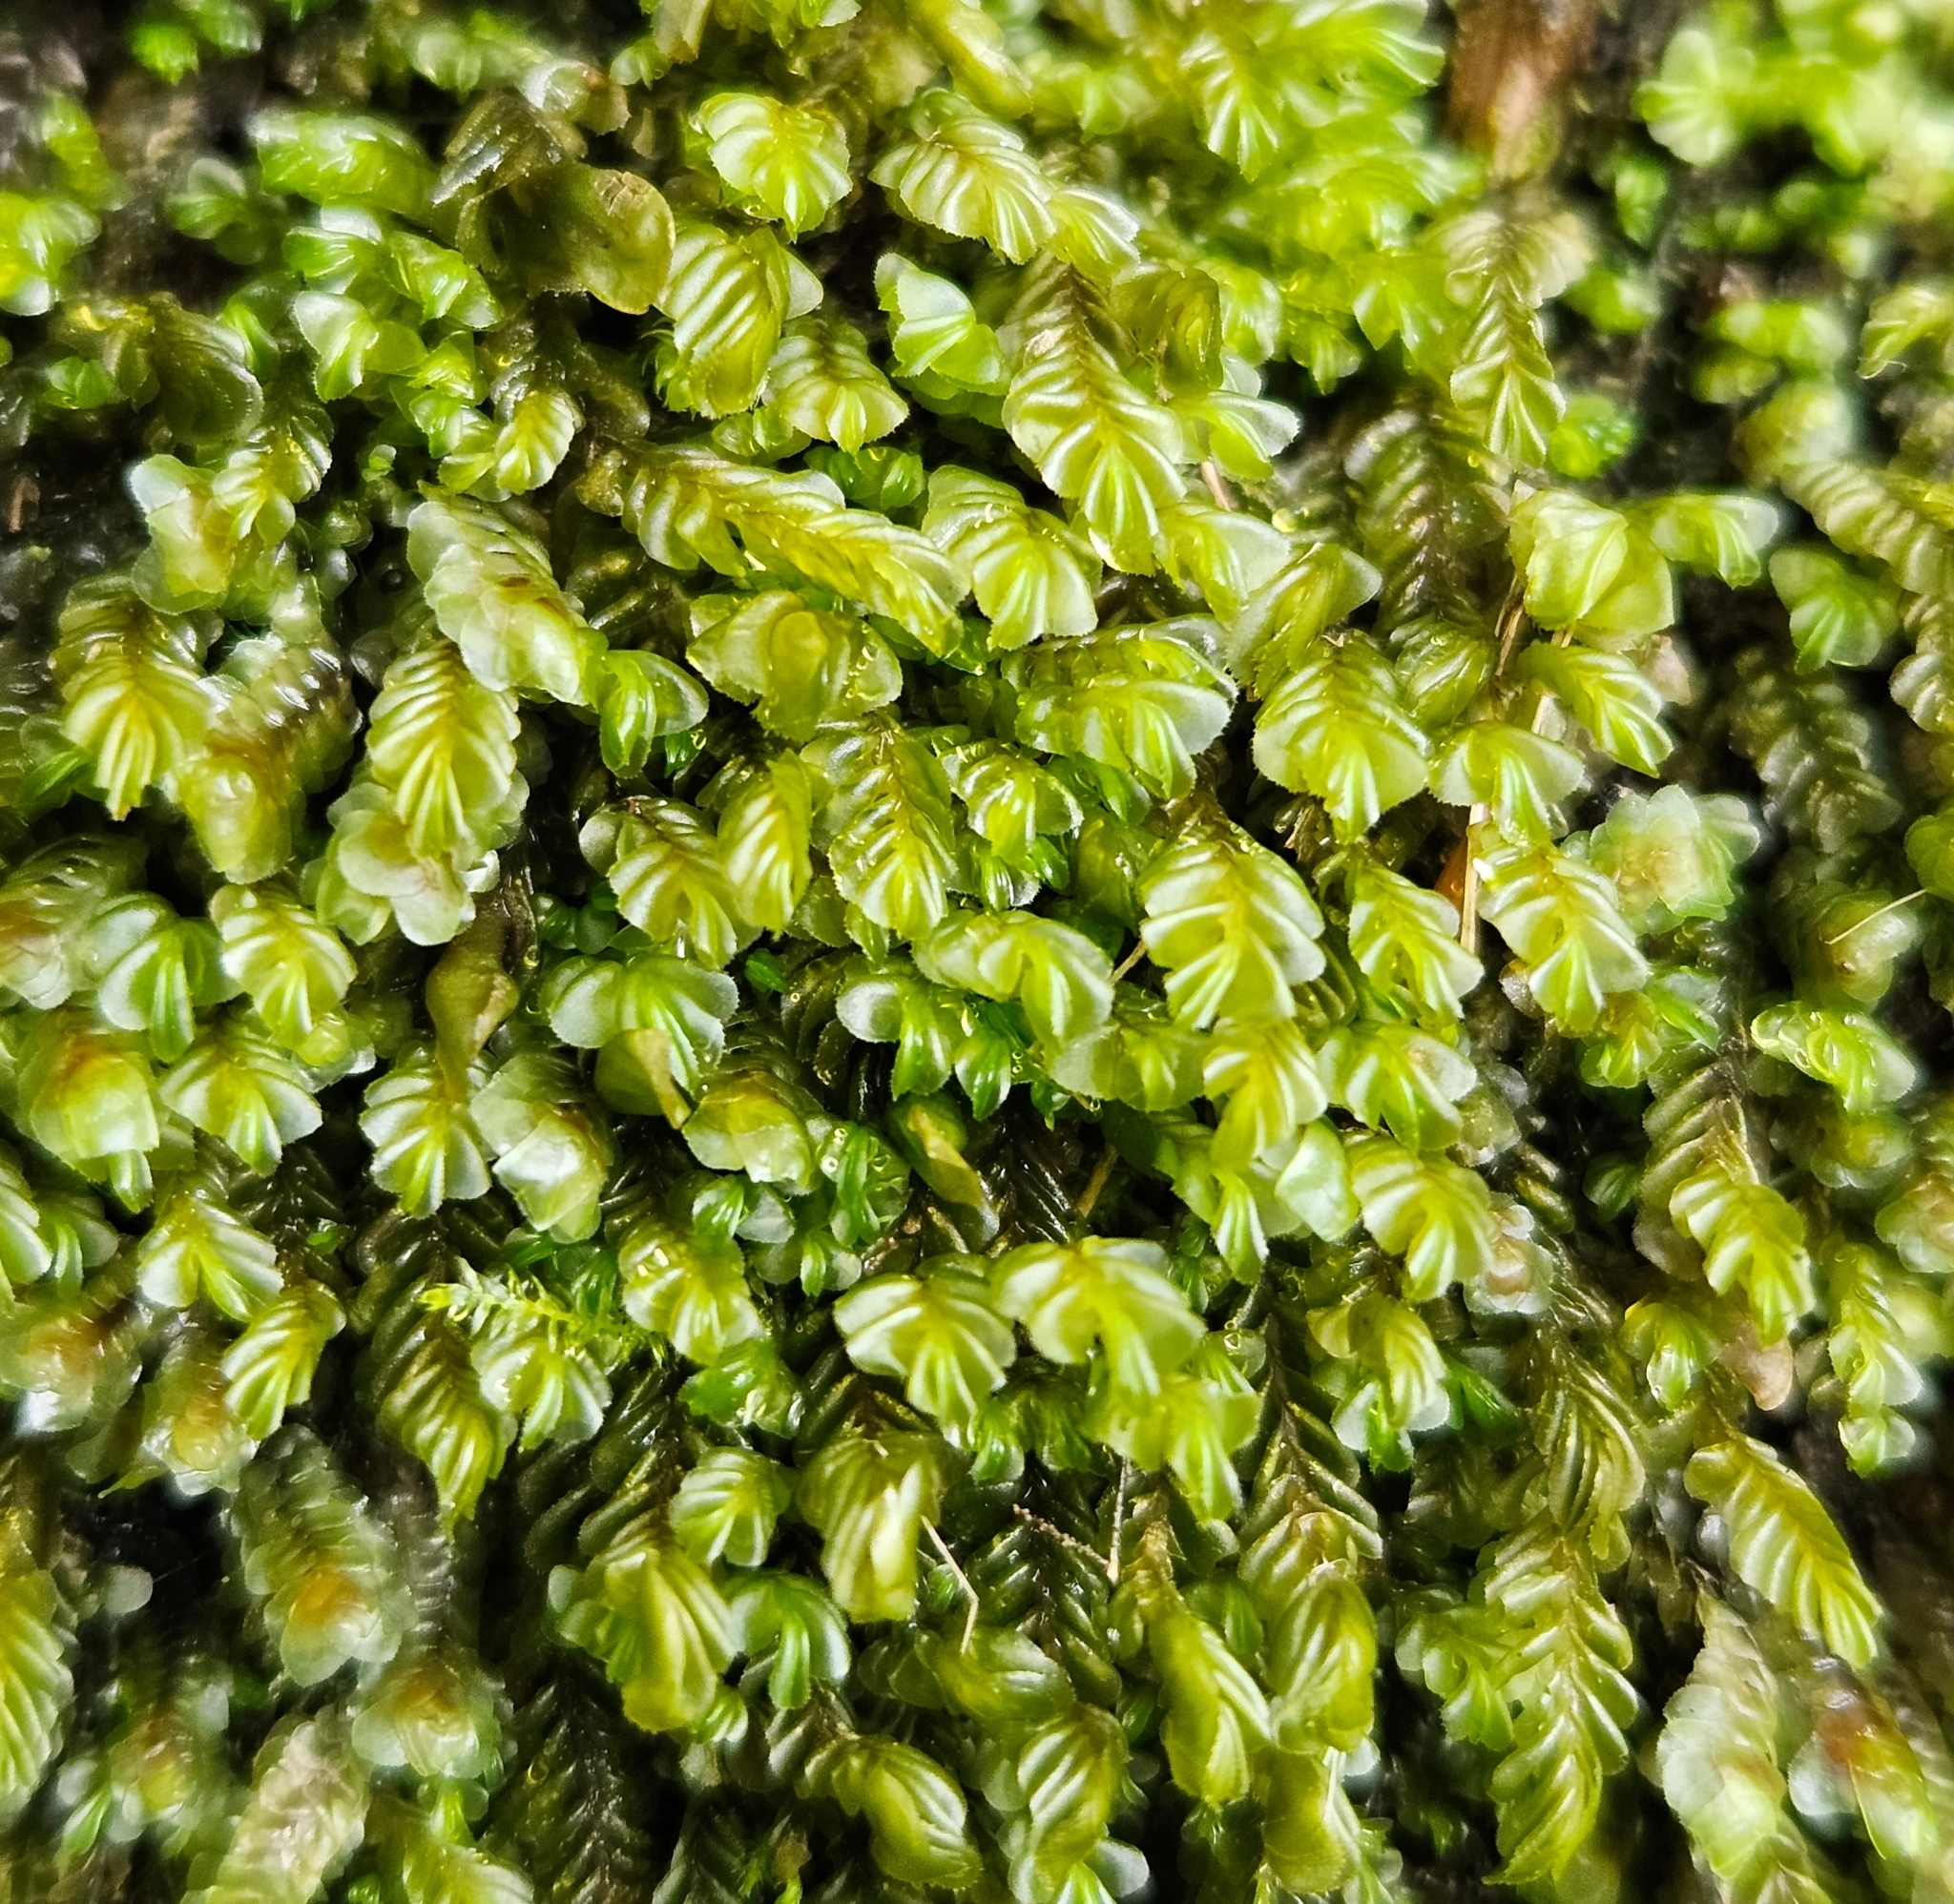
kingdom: Plantae
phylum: Marchantiophyta
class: Jungermanniopsida
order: Jungermanniales
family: Plagiochilaceae
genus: Plagiochila
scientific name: Plagiochila porelloides
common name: Lesser featherwort
